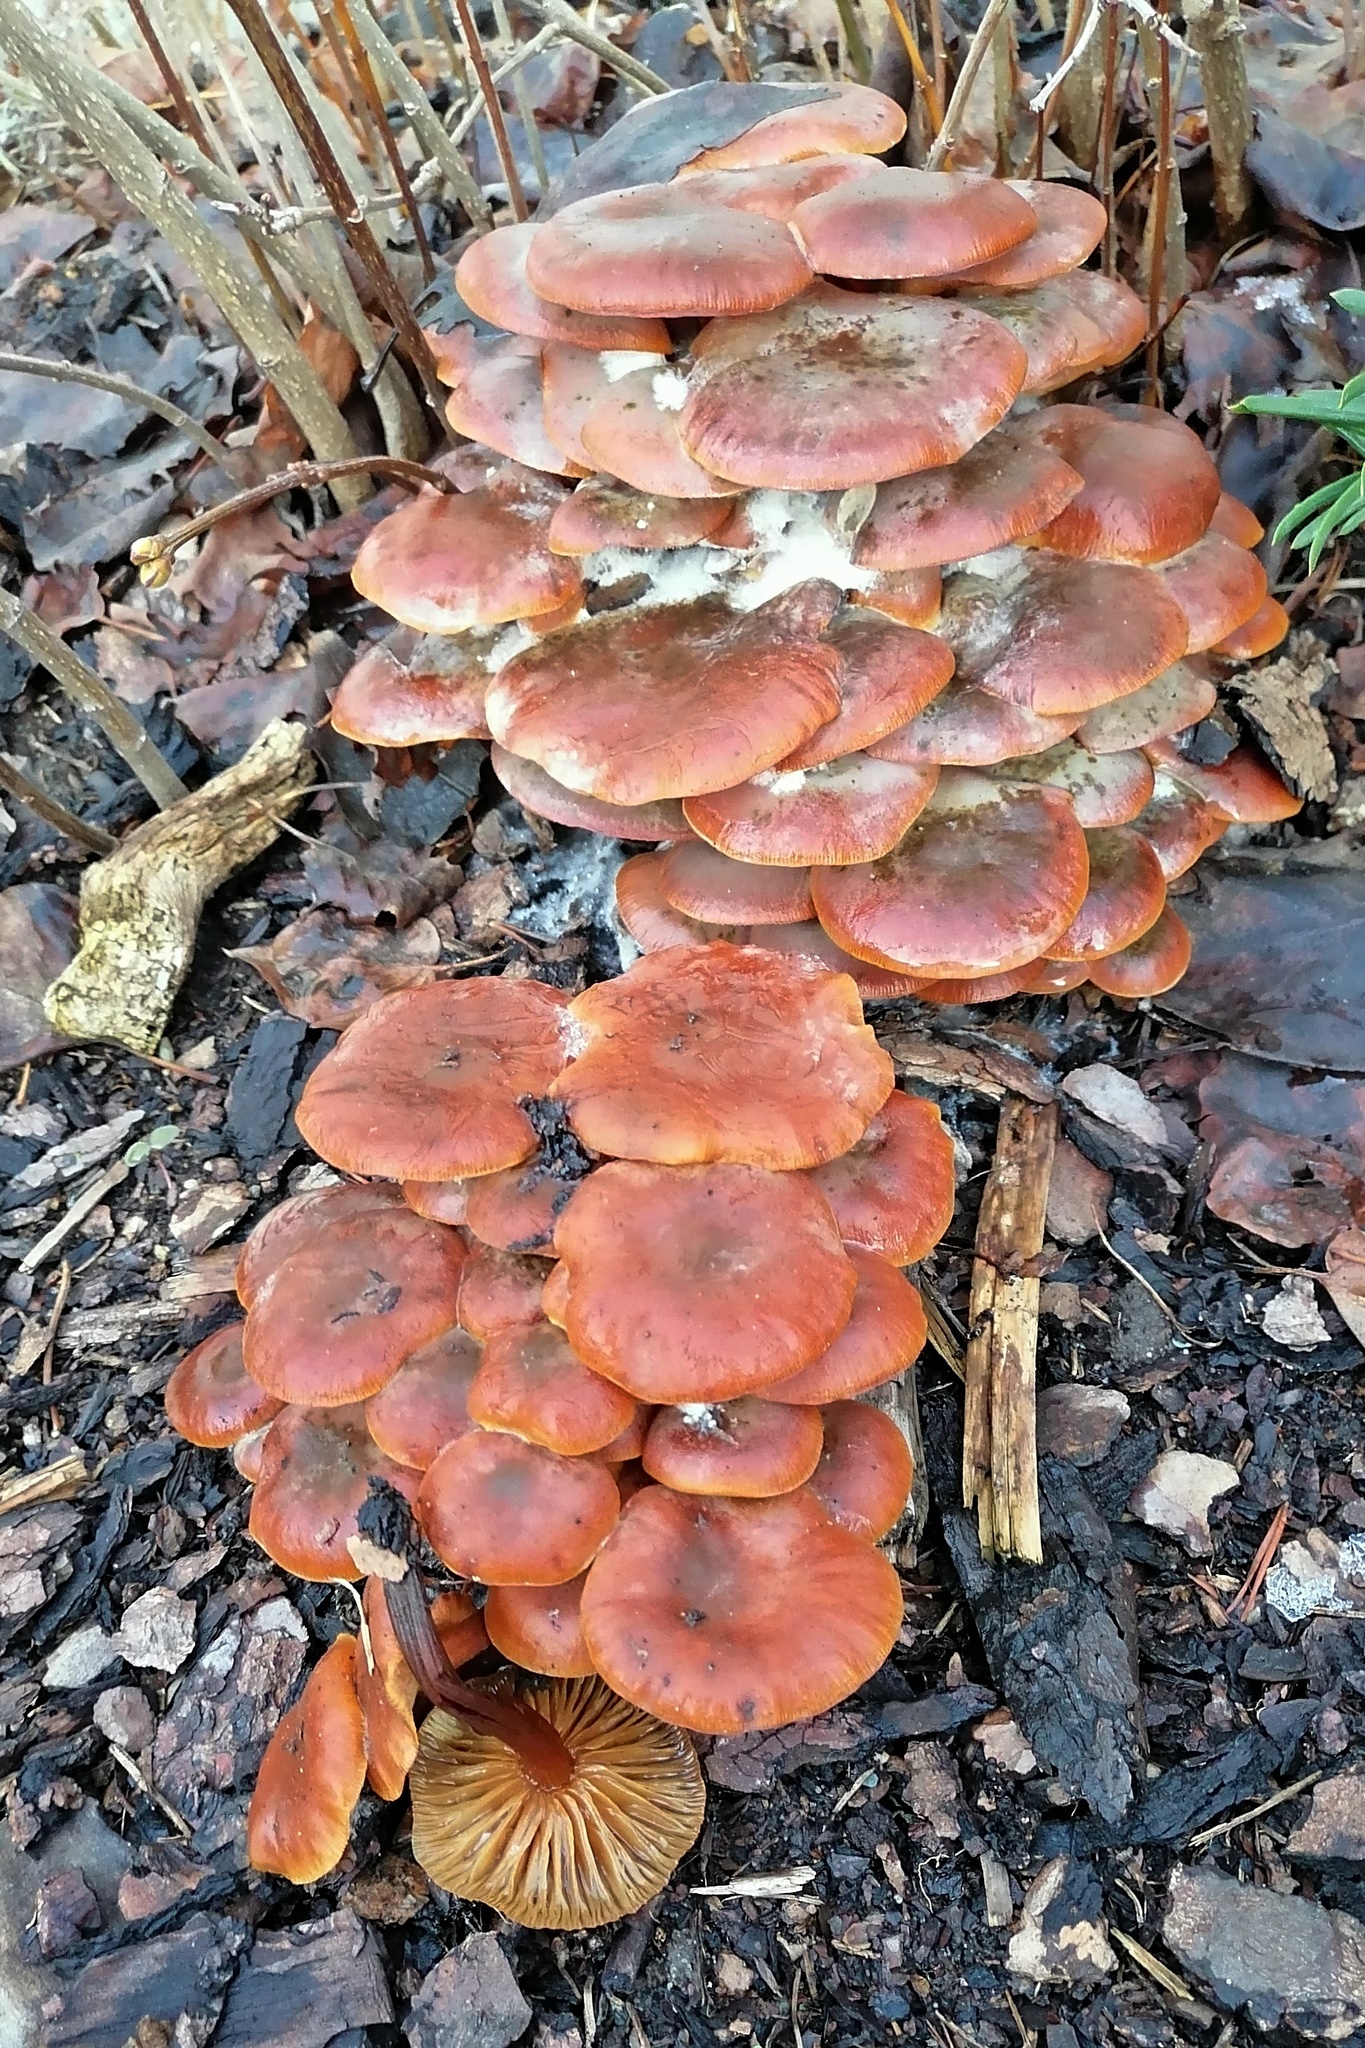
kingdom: Fungi
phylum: Basidiomycota
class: Agaricomycetes
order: Agaricales
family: Physalacriaceae
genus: Flammulina
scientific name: Flammulina
